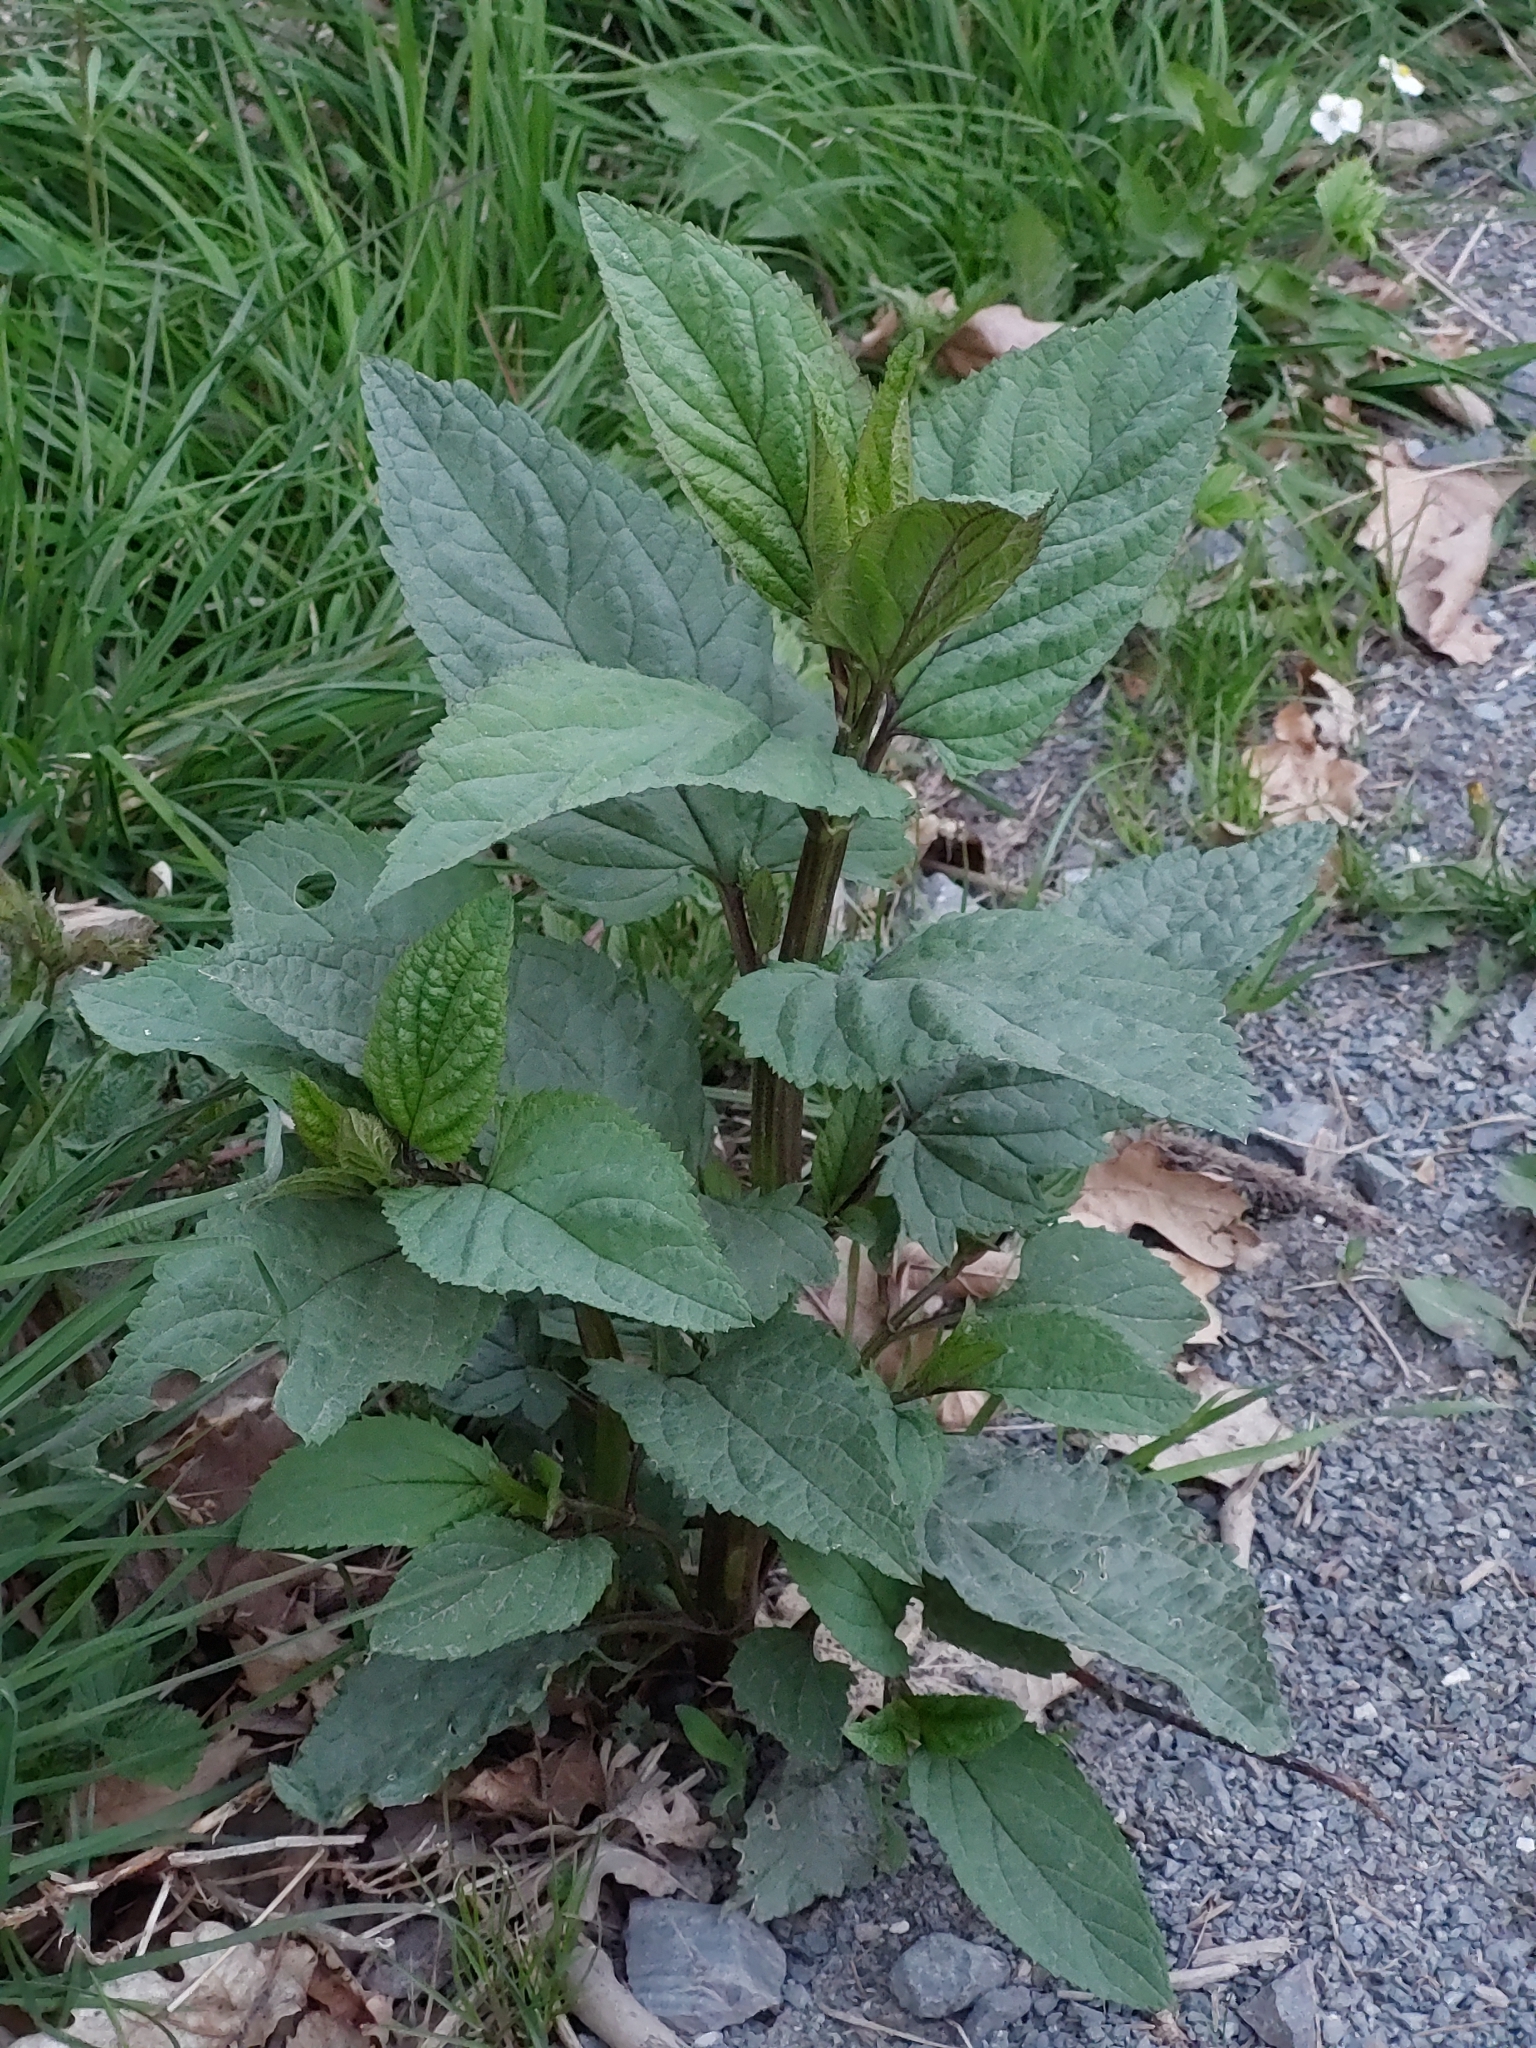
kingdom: Plantae
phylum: Tracheophyta
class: Magnoliopsida
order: Lamiales
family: Scrophulariaceae
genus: Scrophularia
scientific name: Scrophularia nodosa
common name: Common figwort
